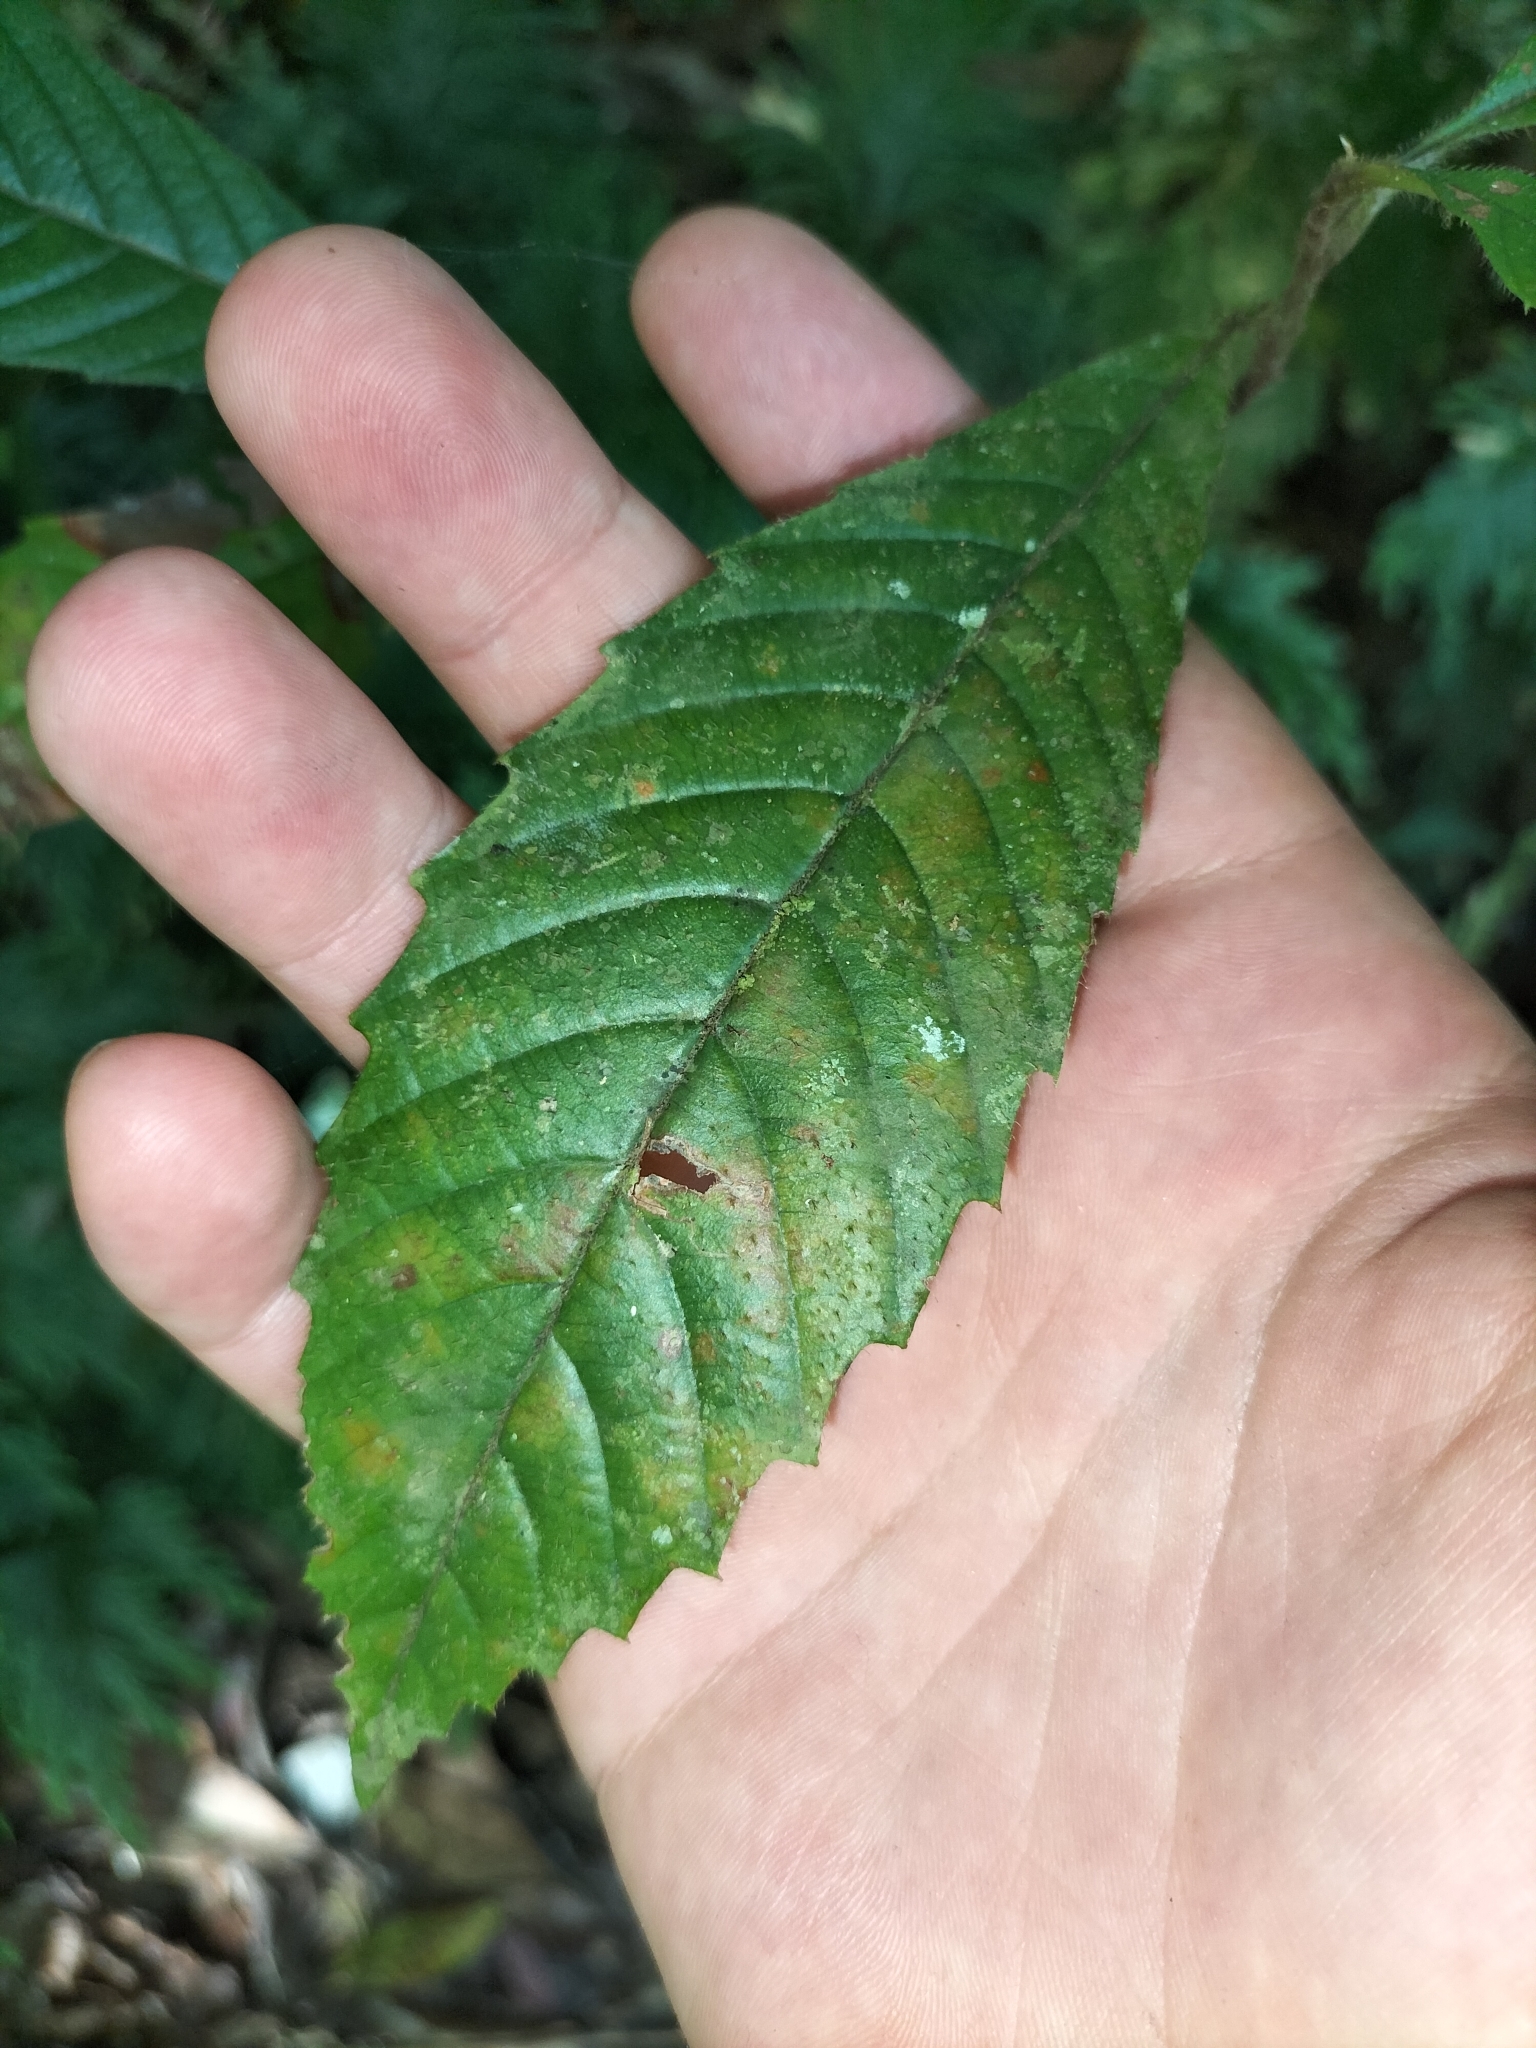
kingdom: Plantae
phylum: Tracheophyta
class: Magnoliopsida
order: Dilleniales
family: Dilleniaceae
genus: Tetracera
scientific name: Tetracera nordtiana
